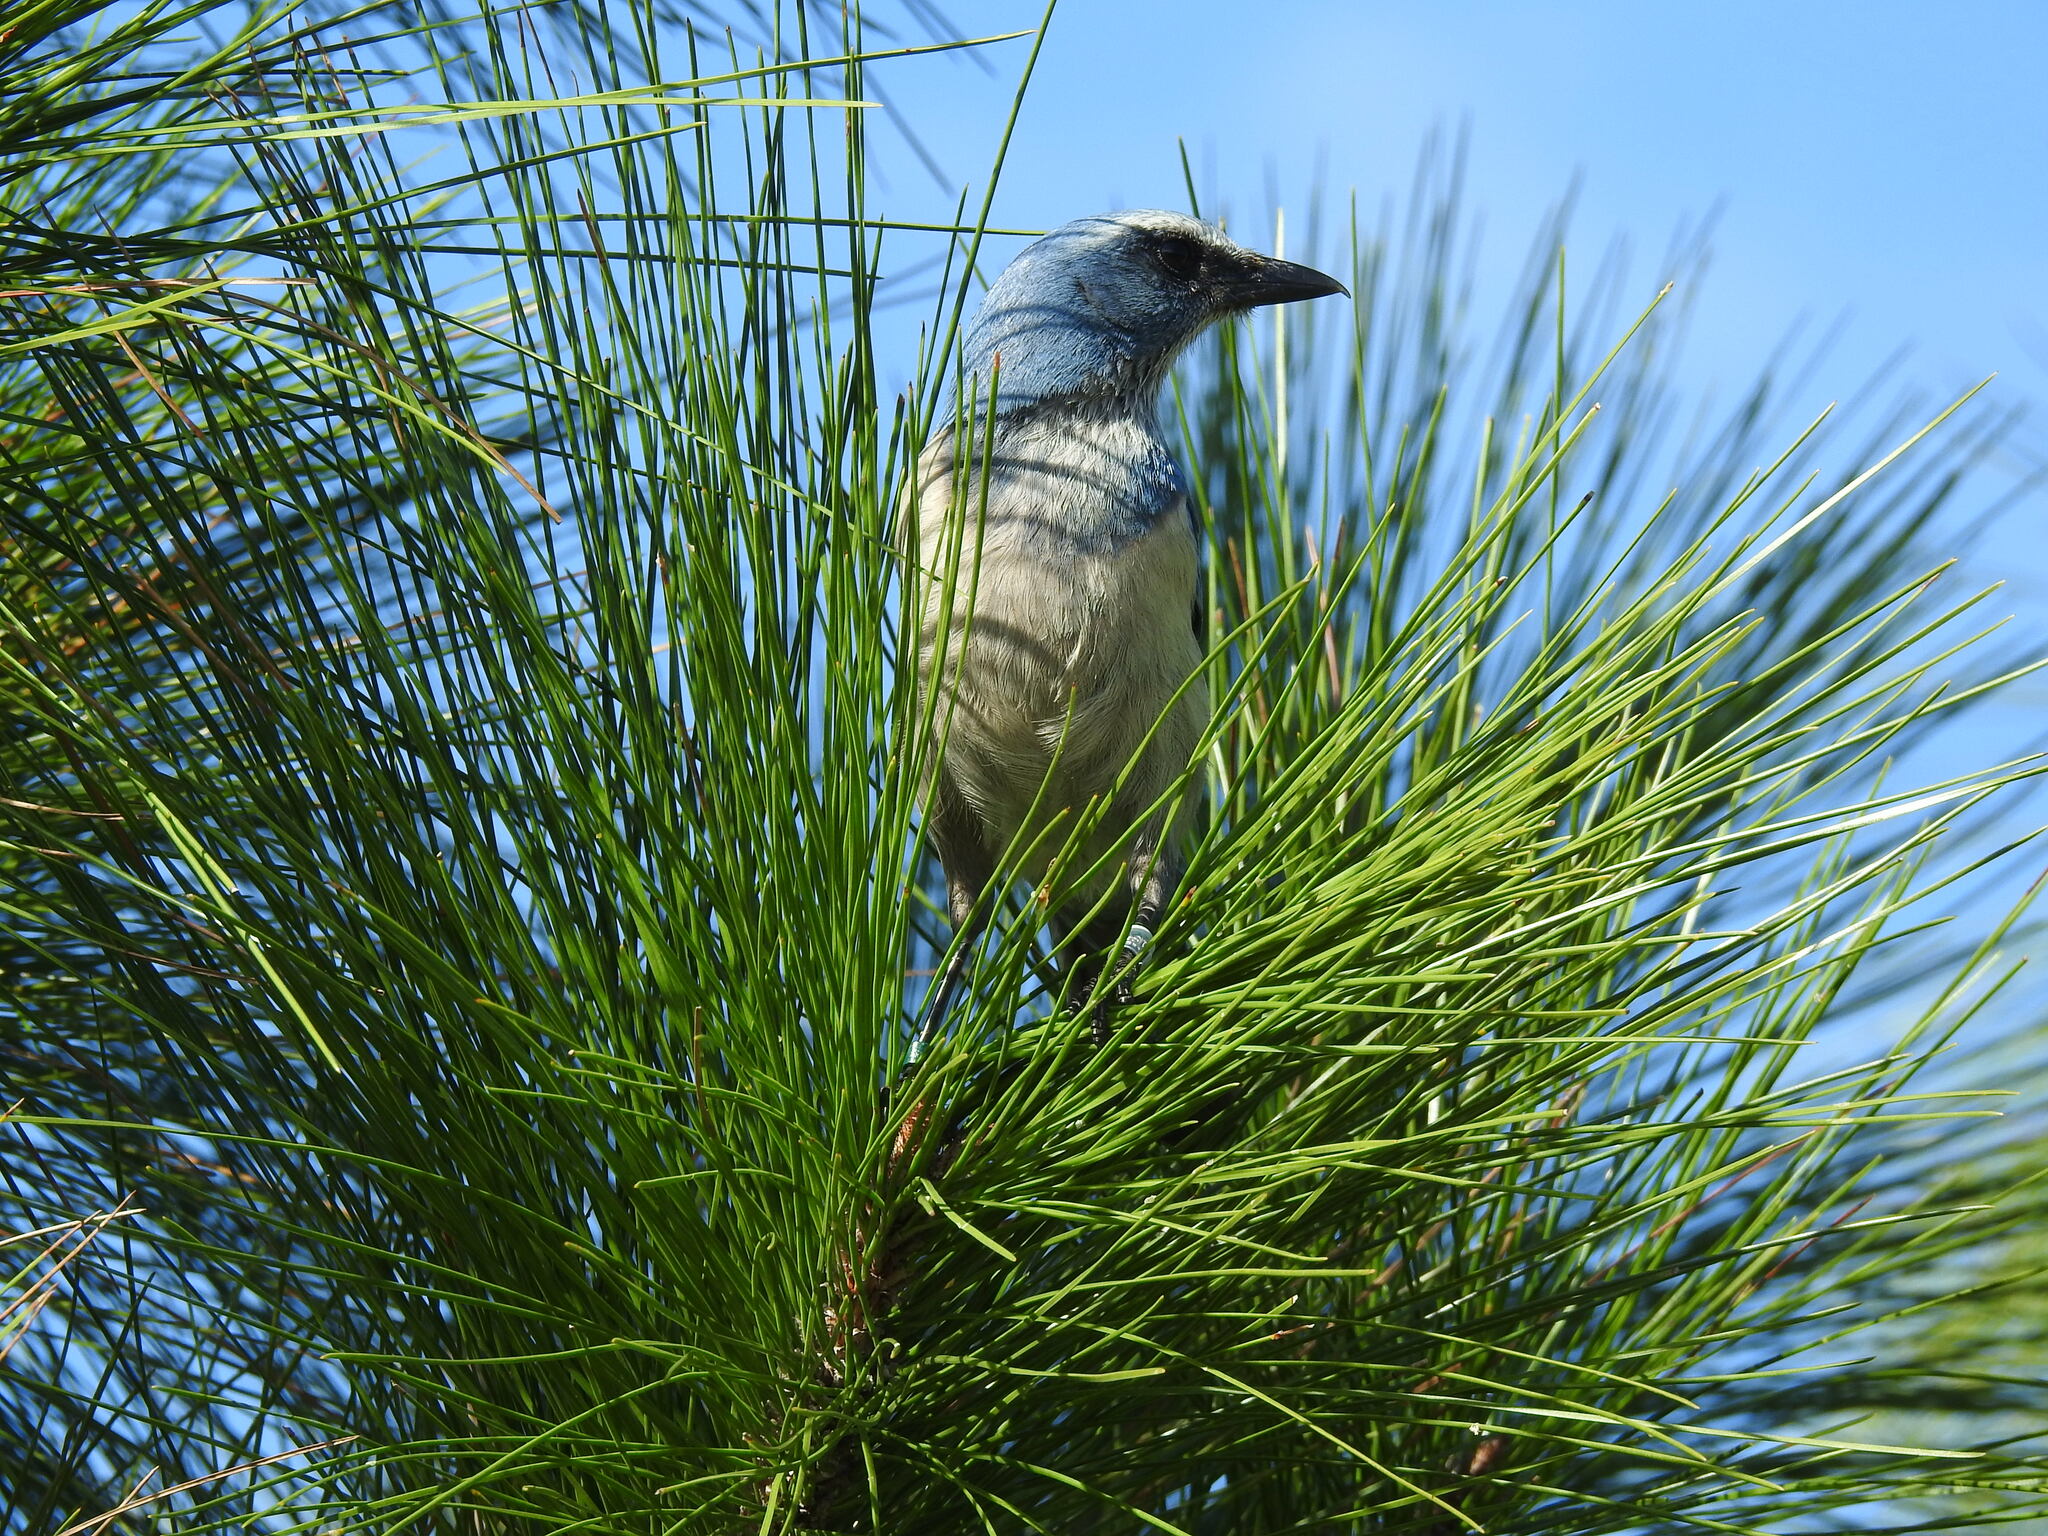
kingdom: Animalia
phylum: Chordata
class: Aves
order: Passeriformes
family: Corvidae
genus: Aphelocoma
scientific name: Aphelocoma coerulescens
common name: Florida scrub jay
